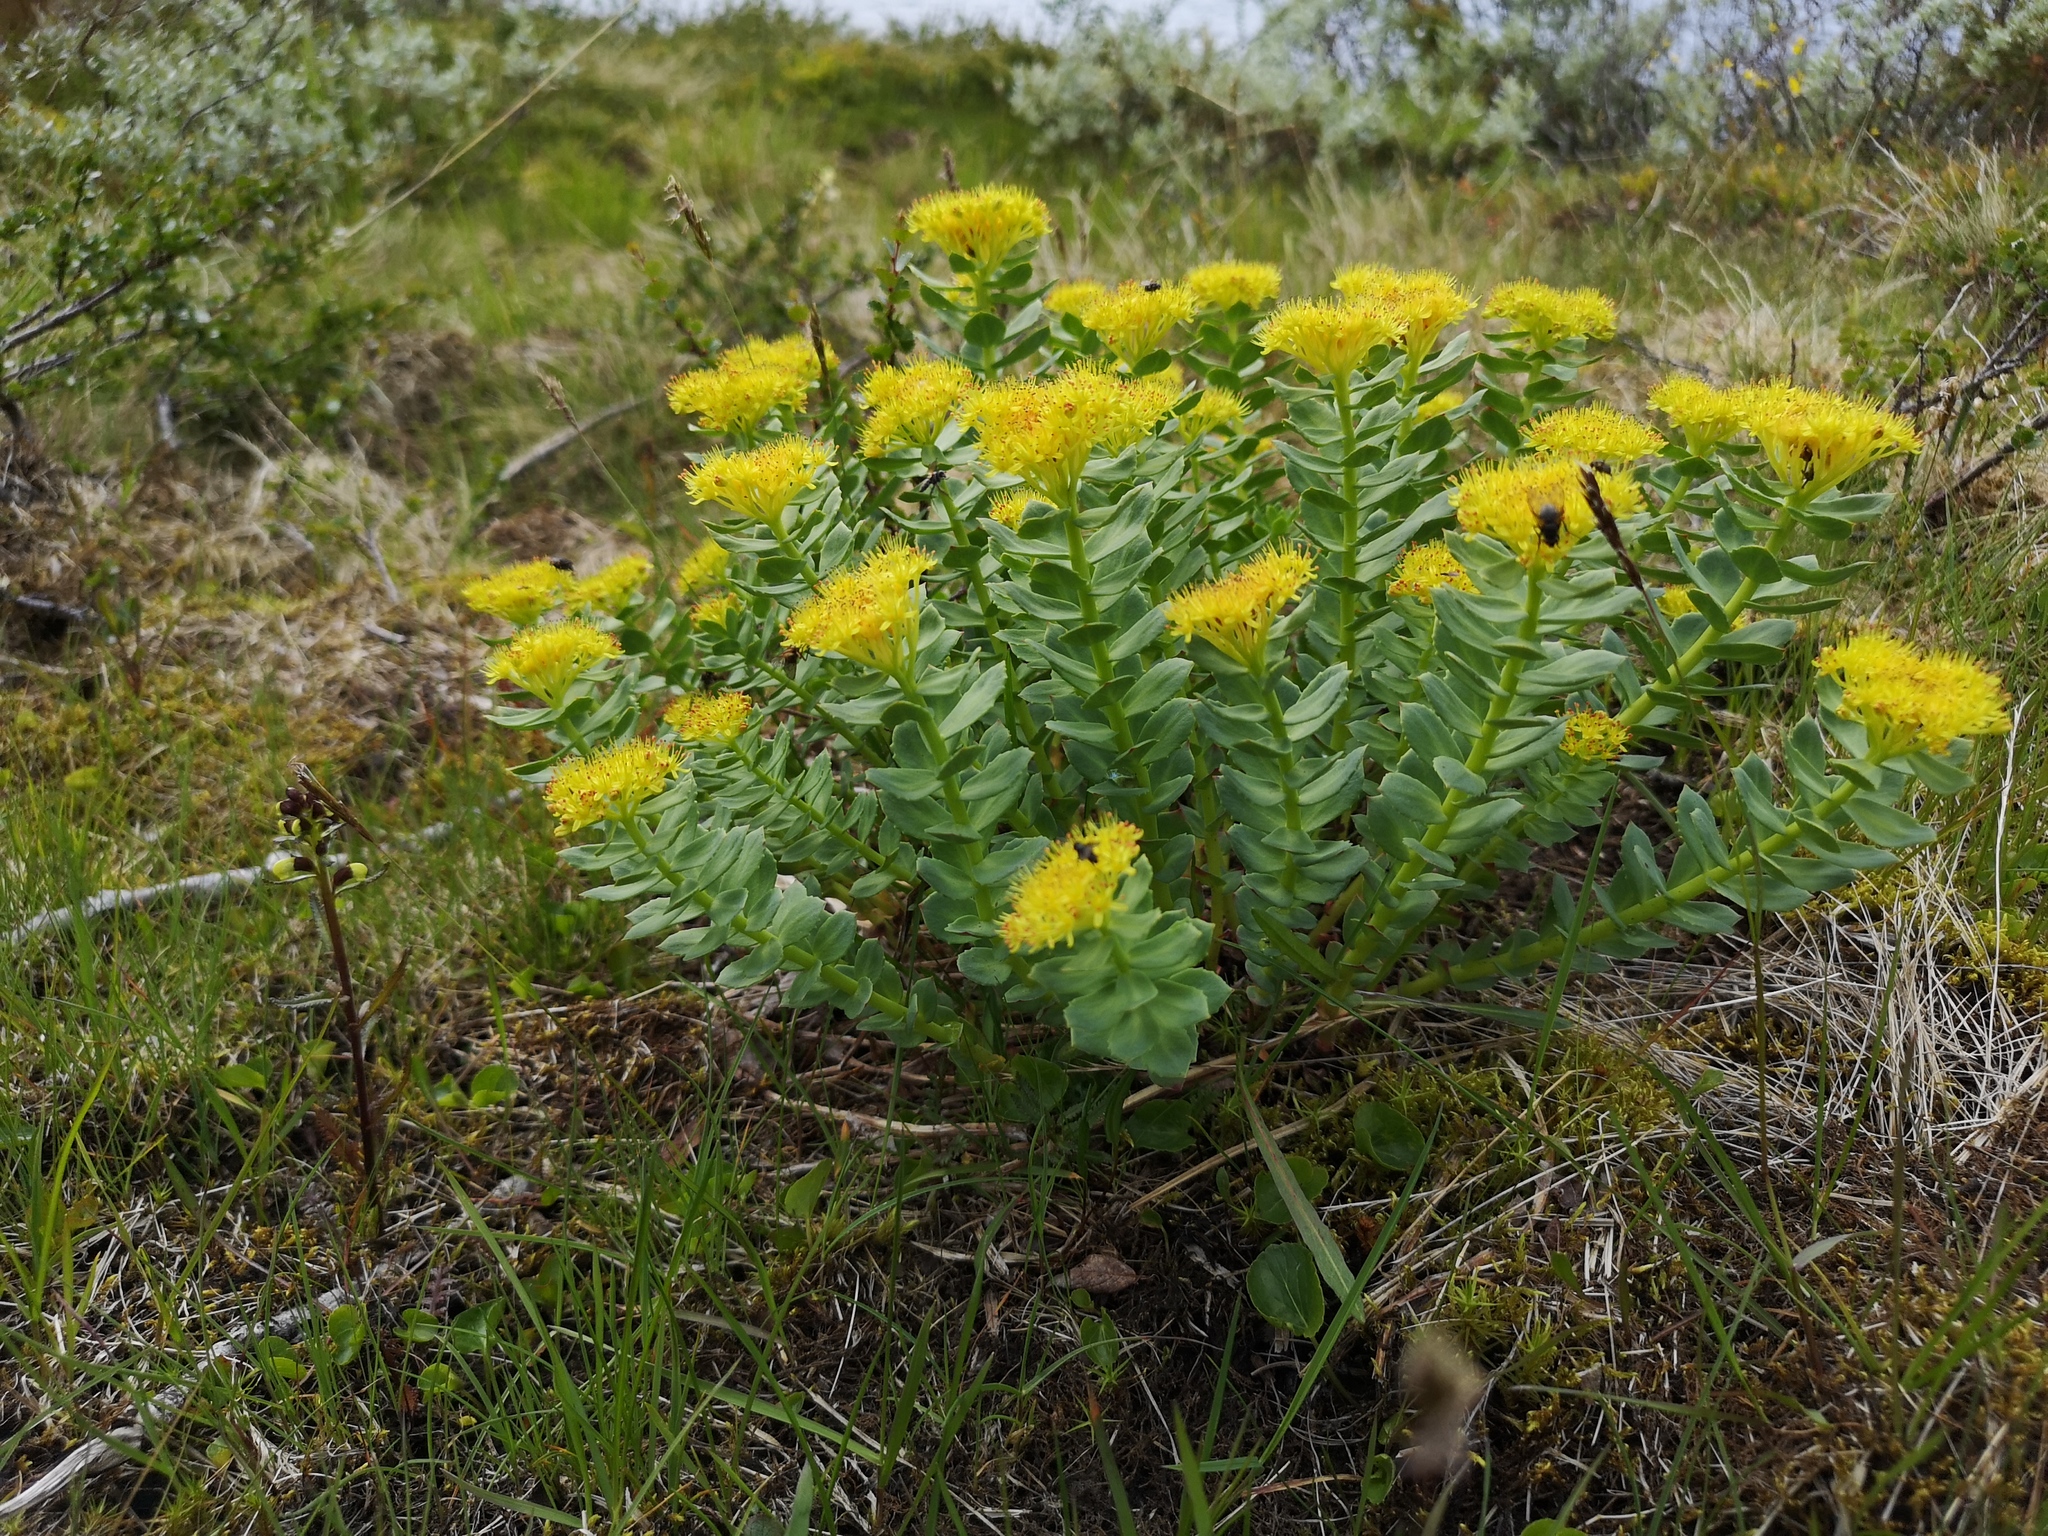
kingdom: Plantae
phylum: Tracheophyta
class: Magnoliopsida
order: Saxifragales
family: Crassulaceae
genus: Rhodiola
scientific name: Rhodiola rosea
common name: Roseroot
